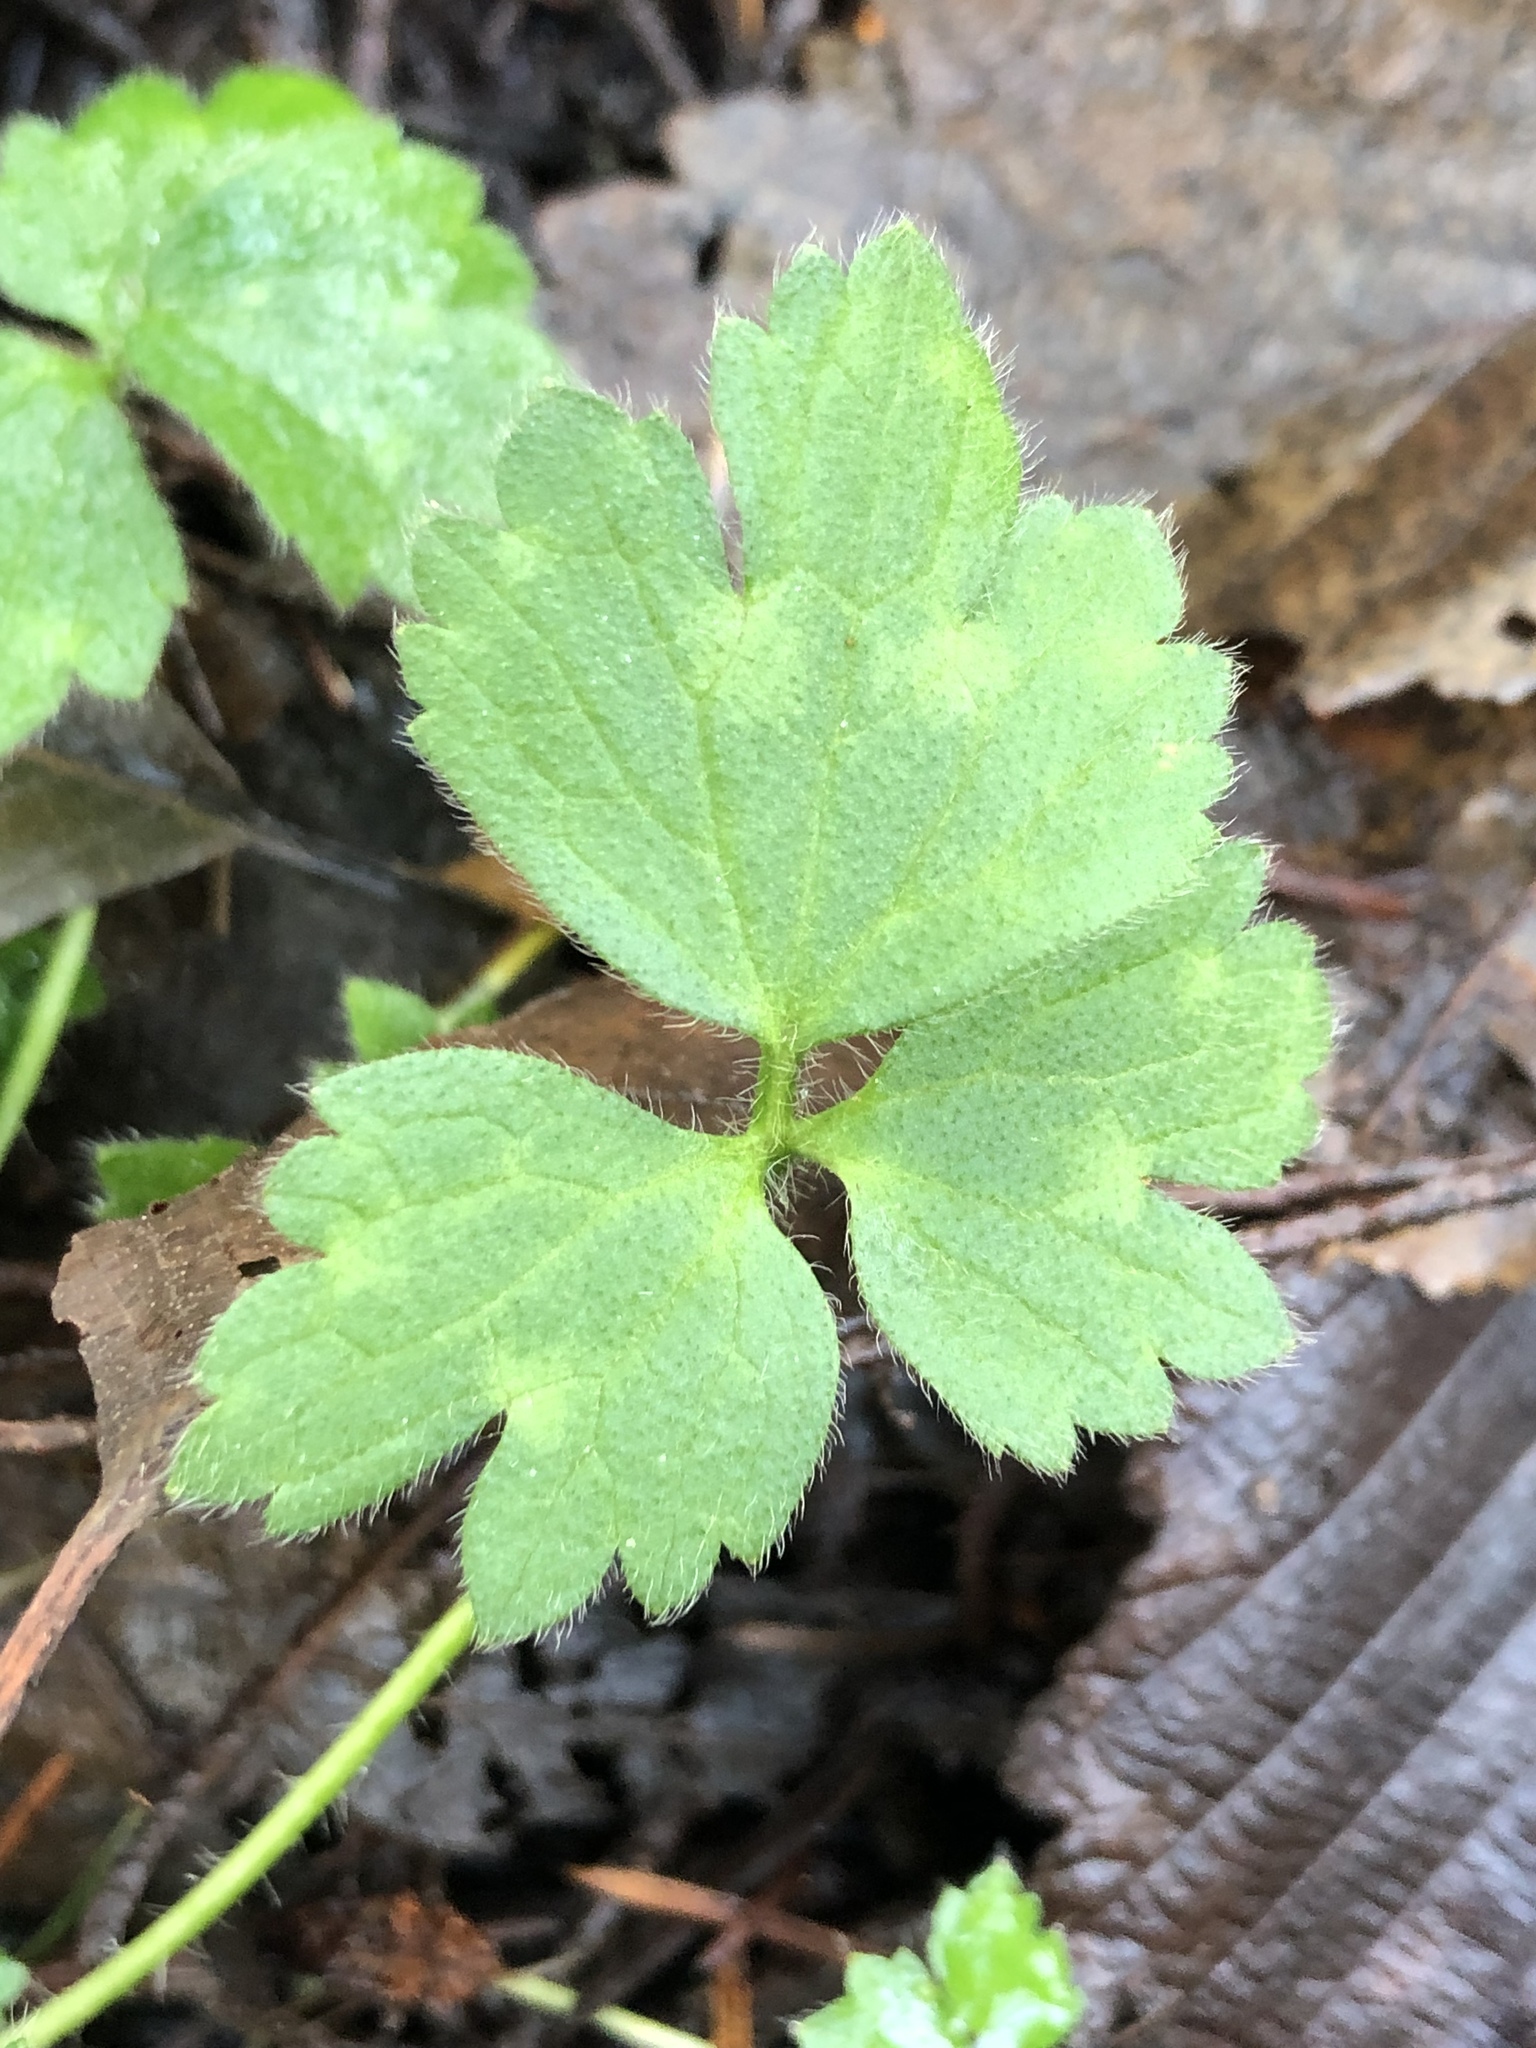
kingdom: Plantae
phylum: Tracheophyta
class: Magnoliopsida
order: Ranunculales
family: Ranunculaceae
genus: Ranunculus
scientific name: Ranunculus repens
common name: Creeping buttercup
